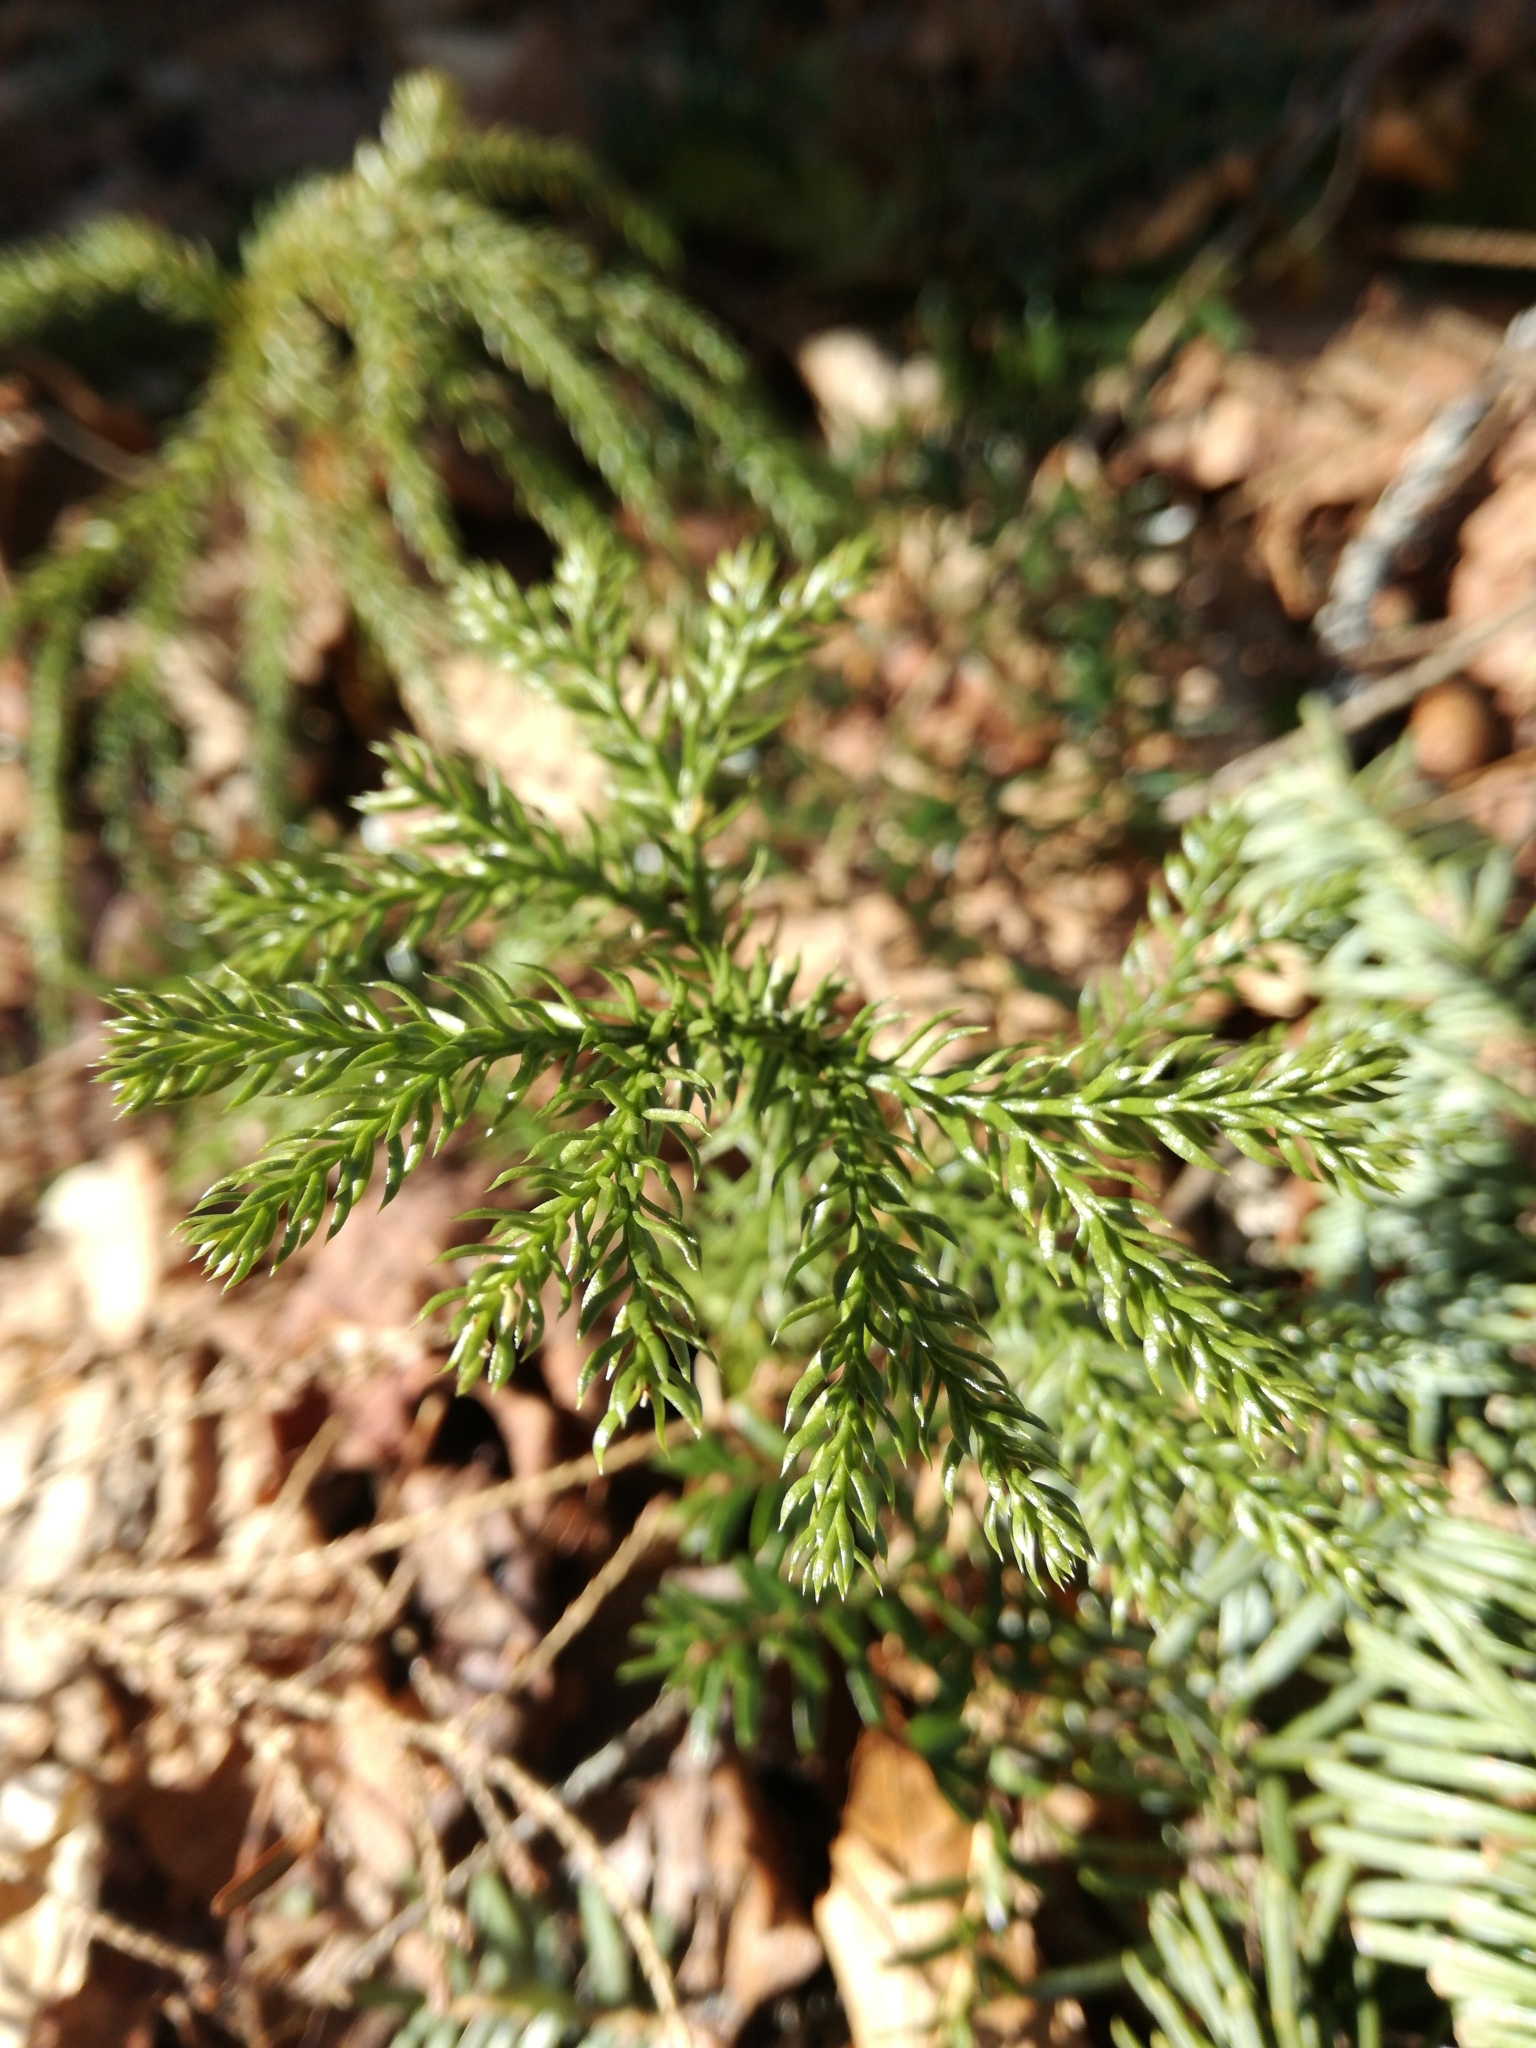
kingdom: Plantae
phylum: Tracheophyta
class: Lycopodiopsida
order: Lycopodiales
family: Lycopodiaceae
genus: Dendrolycopodium
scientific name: Dendrolycopodium dendroideum
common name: Northern tree-clubmoss
